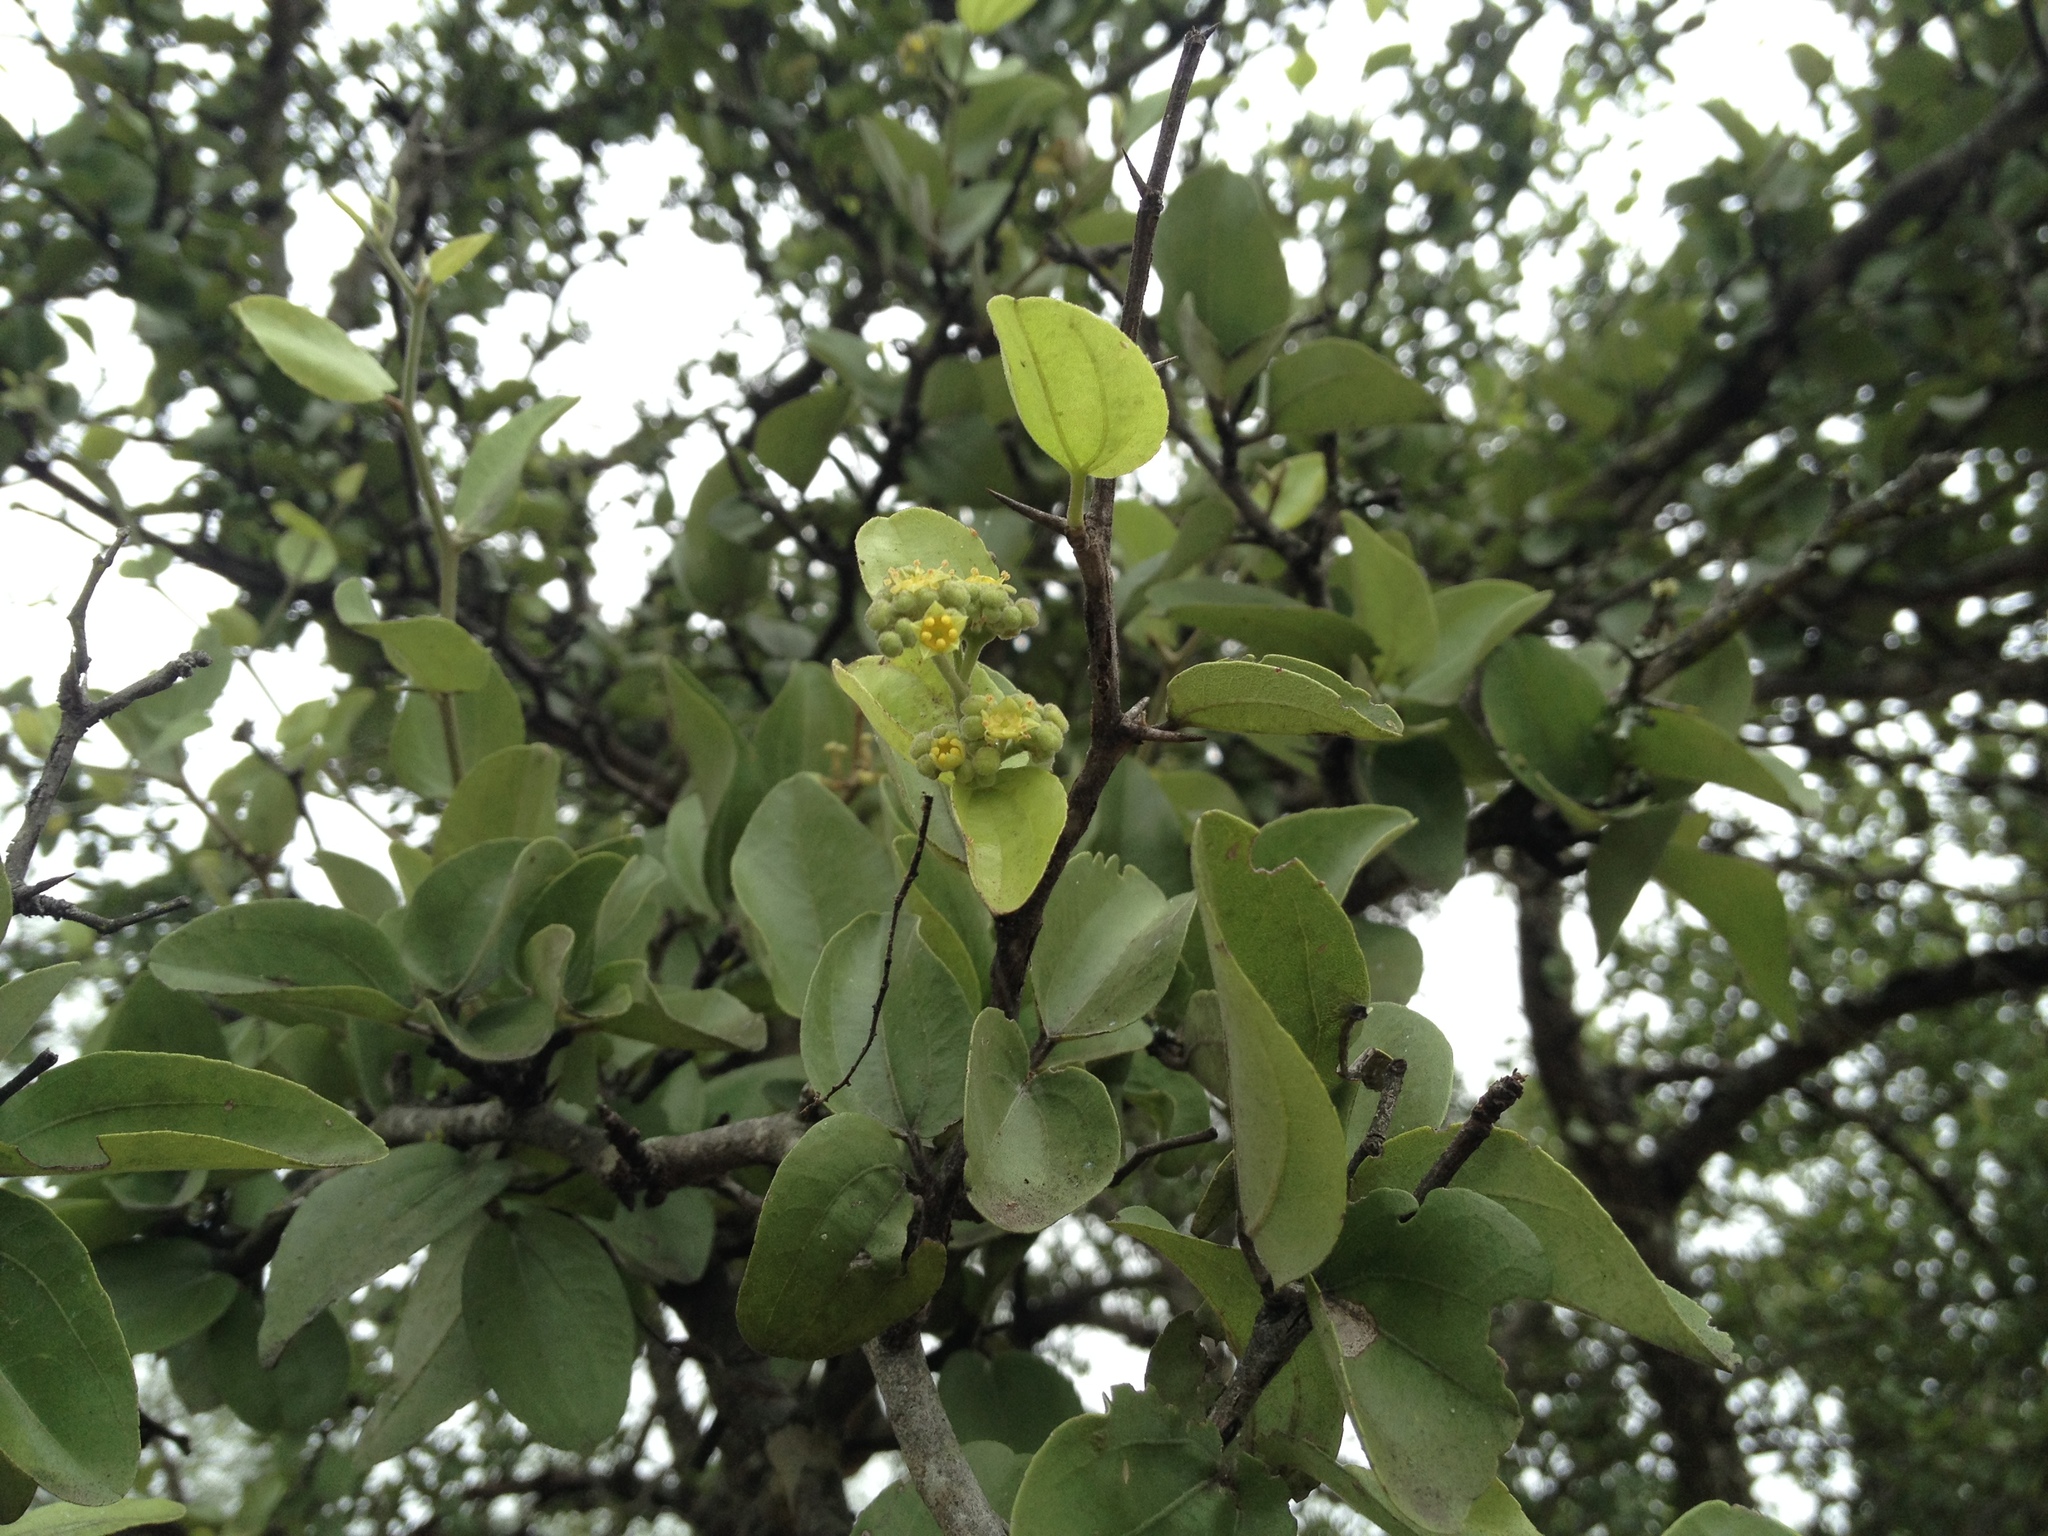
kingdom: Plantae
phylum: Tracheophyta
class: Magnoliopsida
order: Rosales
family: Rhamnaceae
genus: Sarcomphalus
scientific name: Sarcomphalus mistol
